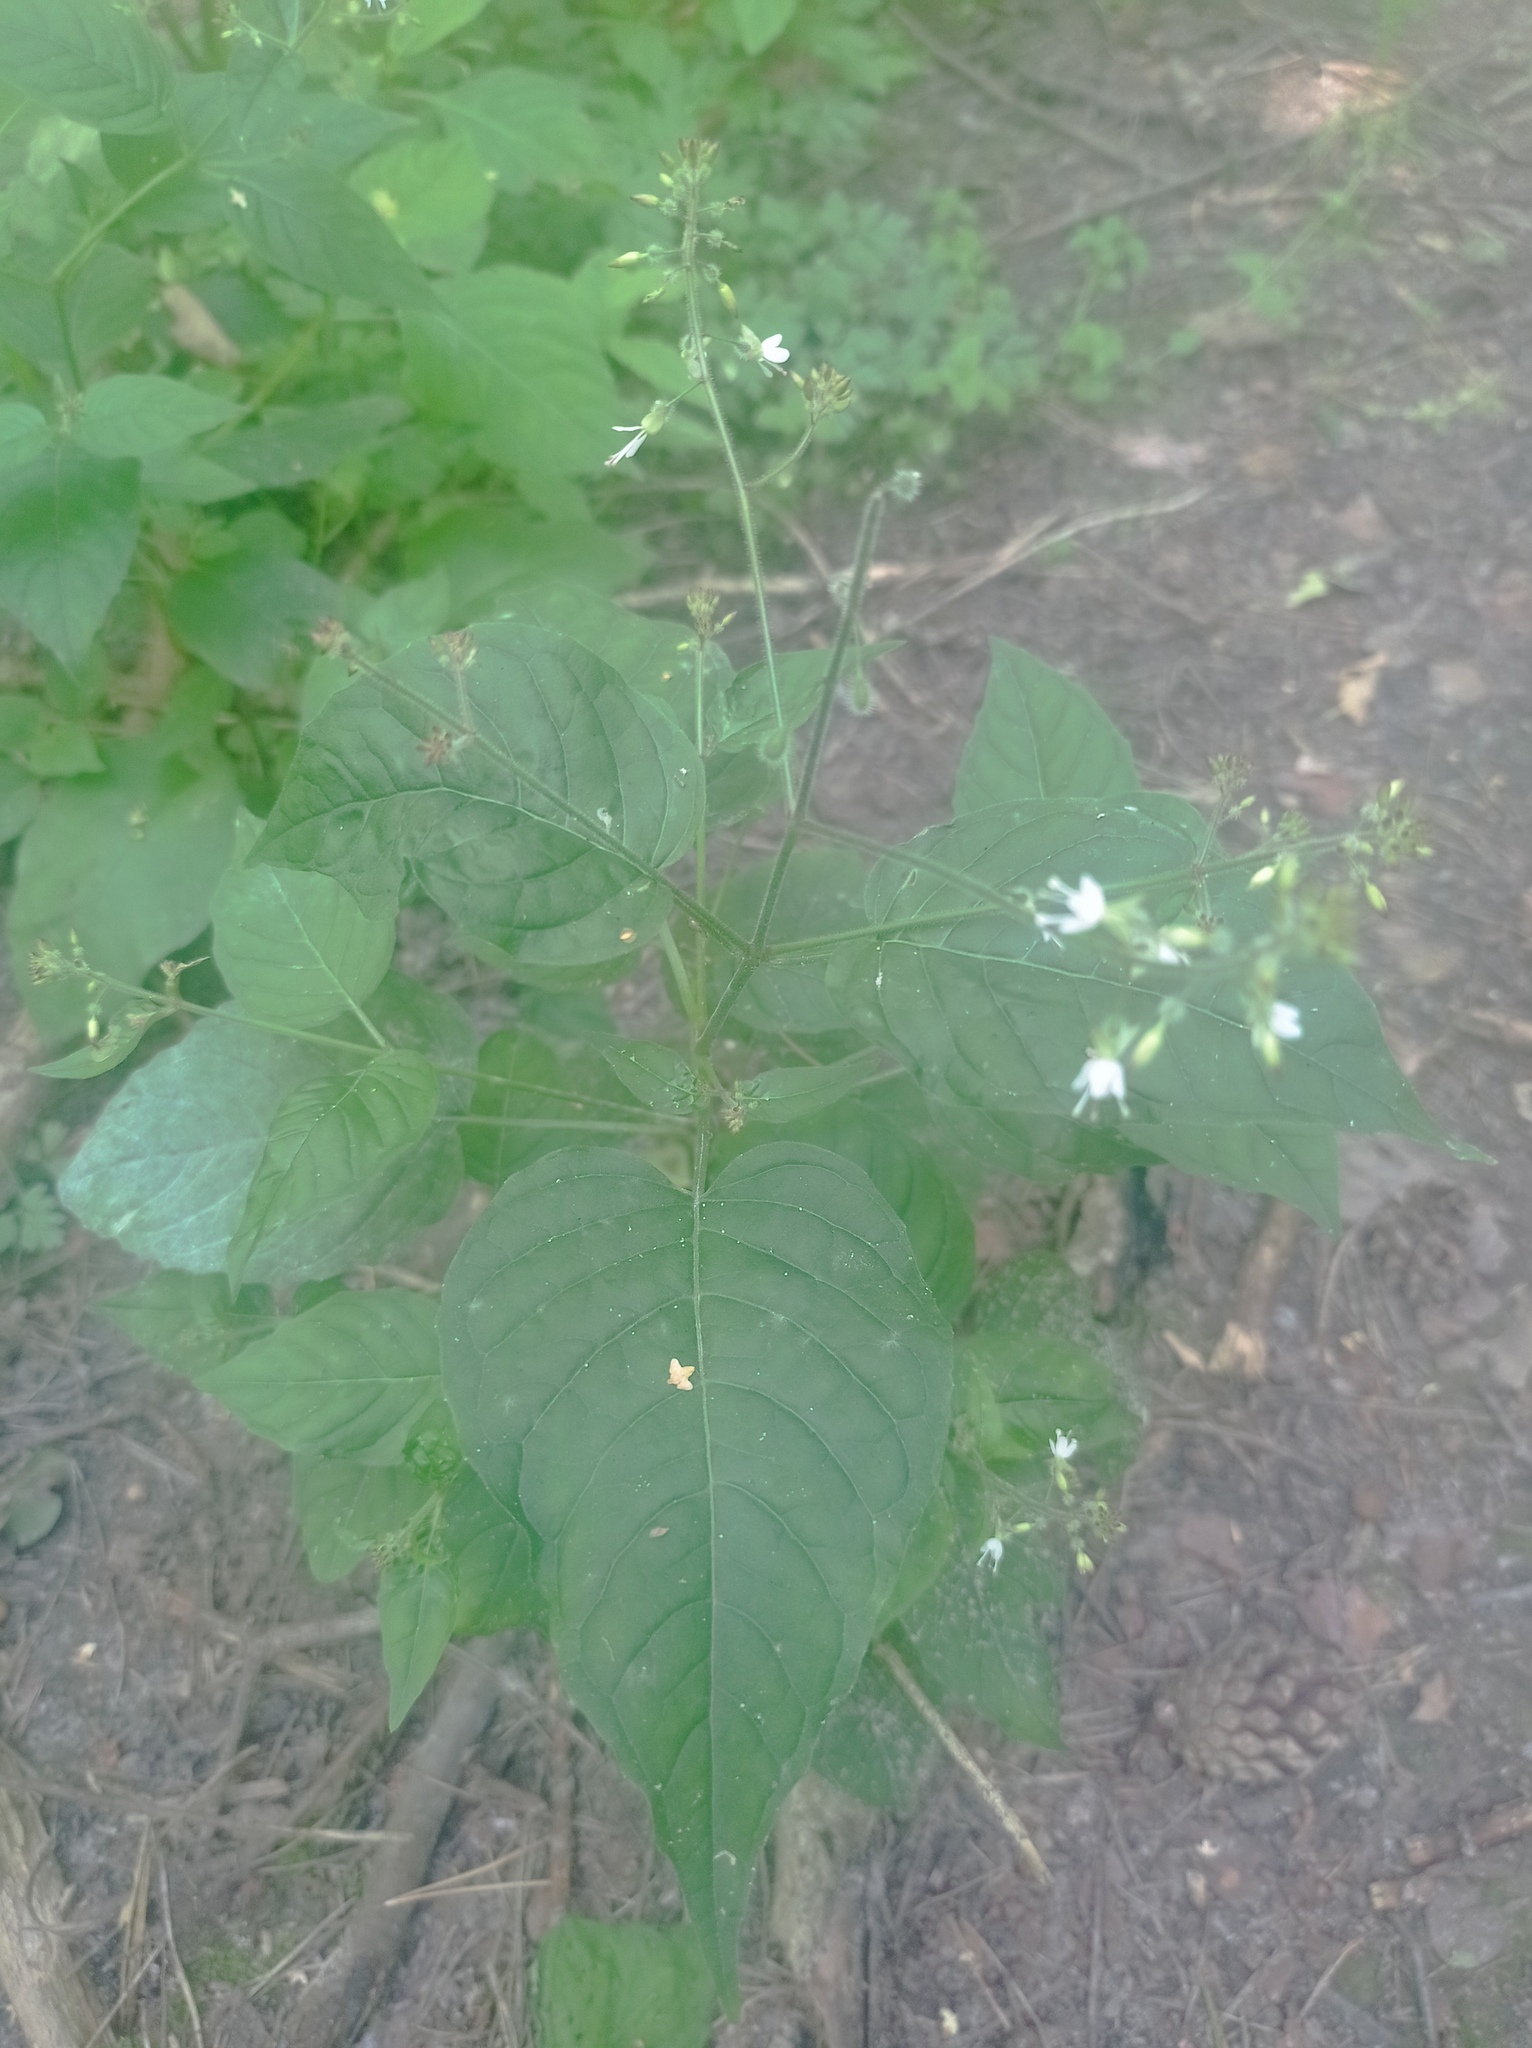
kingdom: Plantae
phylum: Tracheophyta
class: Magnoliopsida
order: Myrtales
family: Onagraceae
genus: Circaea
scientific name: Circaea lutetiana
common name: Enchanter's-nightshade
